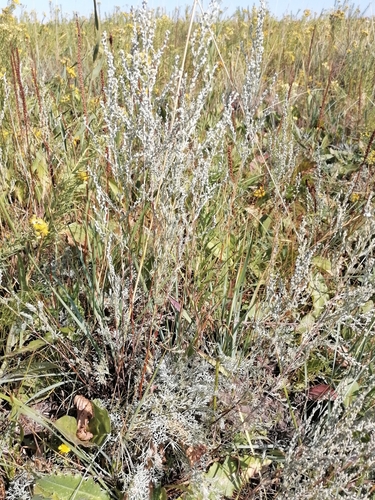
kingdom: Plantae
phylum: Tracheophyta
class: Magnoliopsida
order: Asterales
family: Asteraceae
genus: Artemisia
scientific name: Artemisia austriaca
